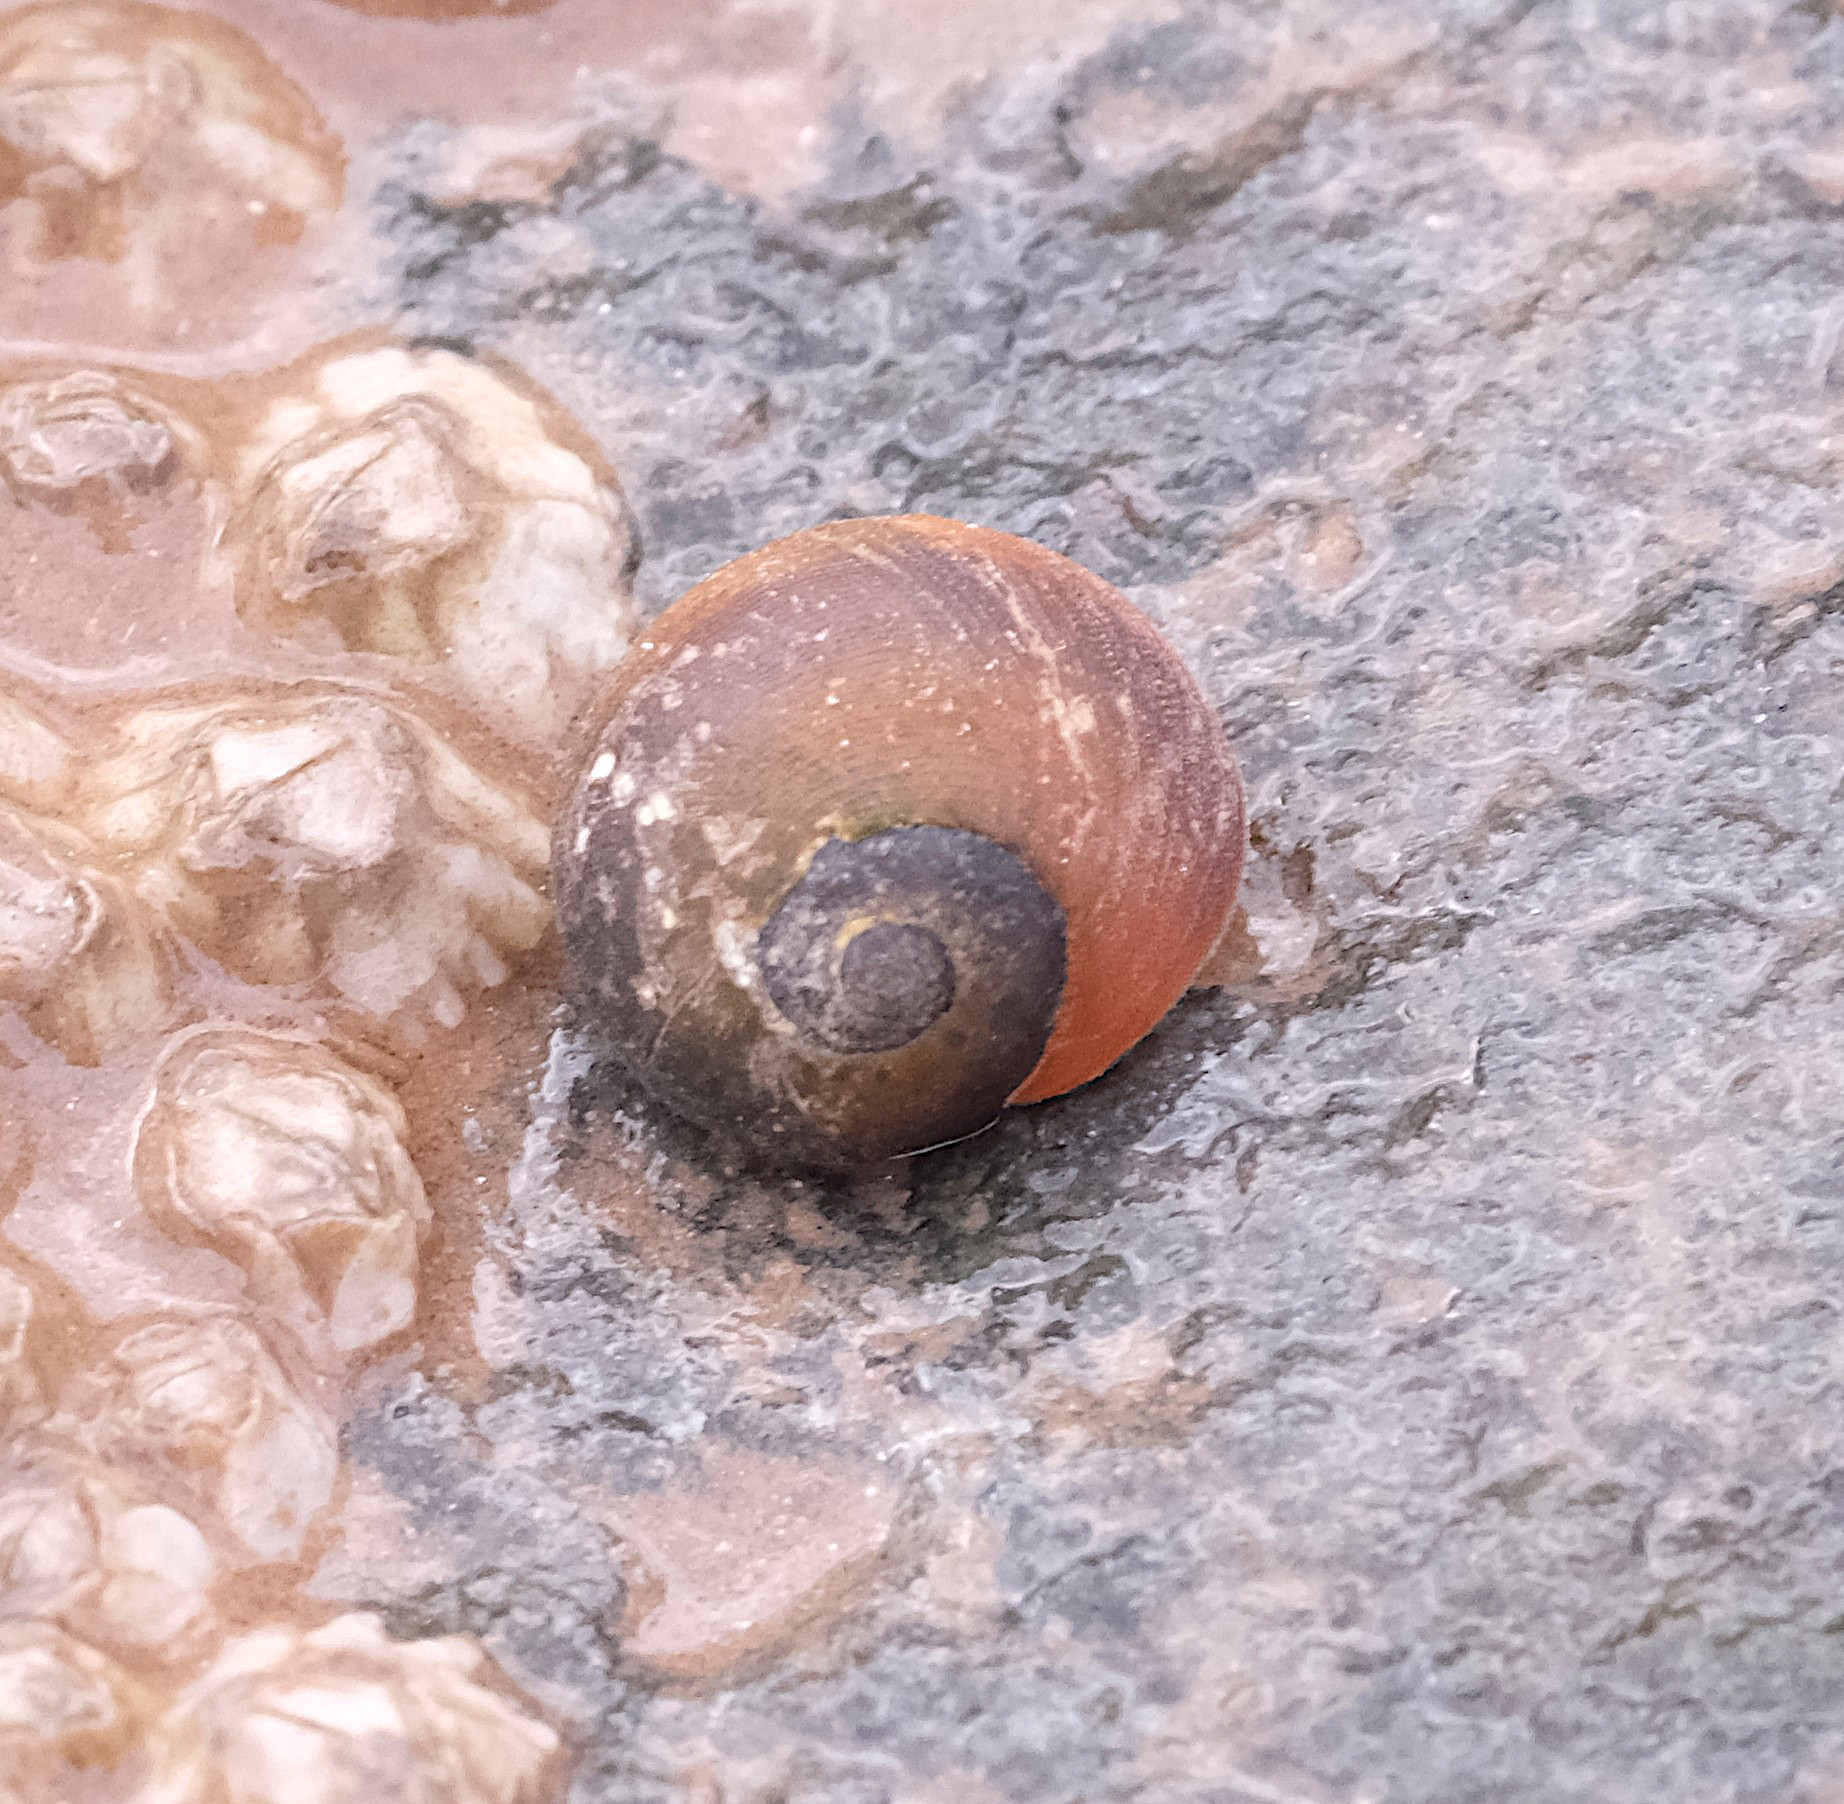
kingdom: Animalia
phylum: Mollusca
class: Gastropoda
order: Littorinimorpha
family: Littorinidae
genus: Littorina
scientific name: Littorina obtusata
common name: Flat periwinkle
